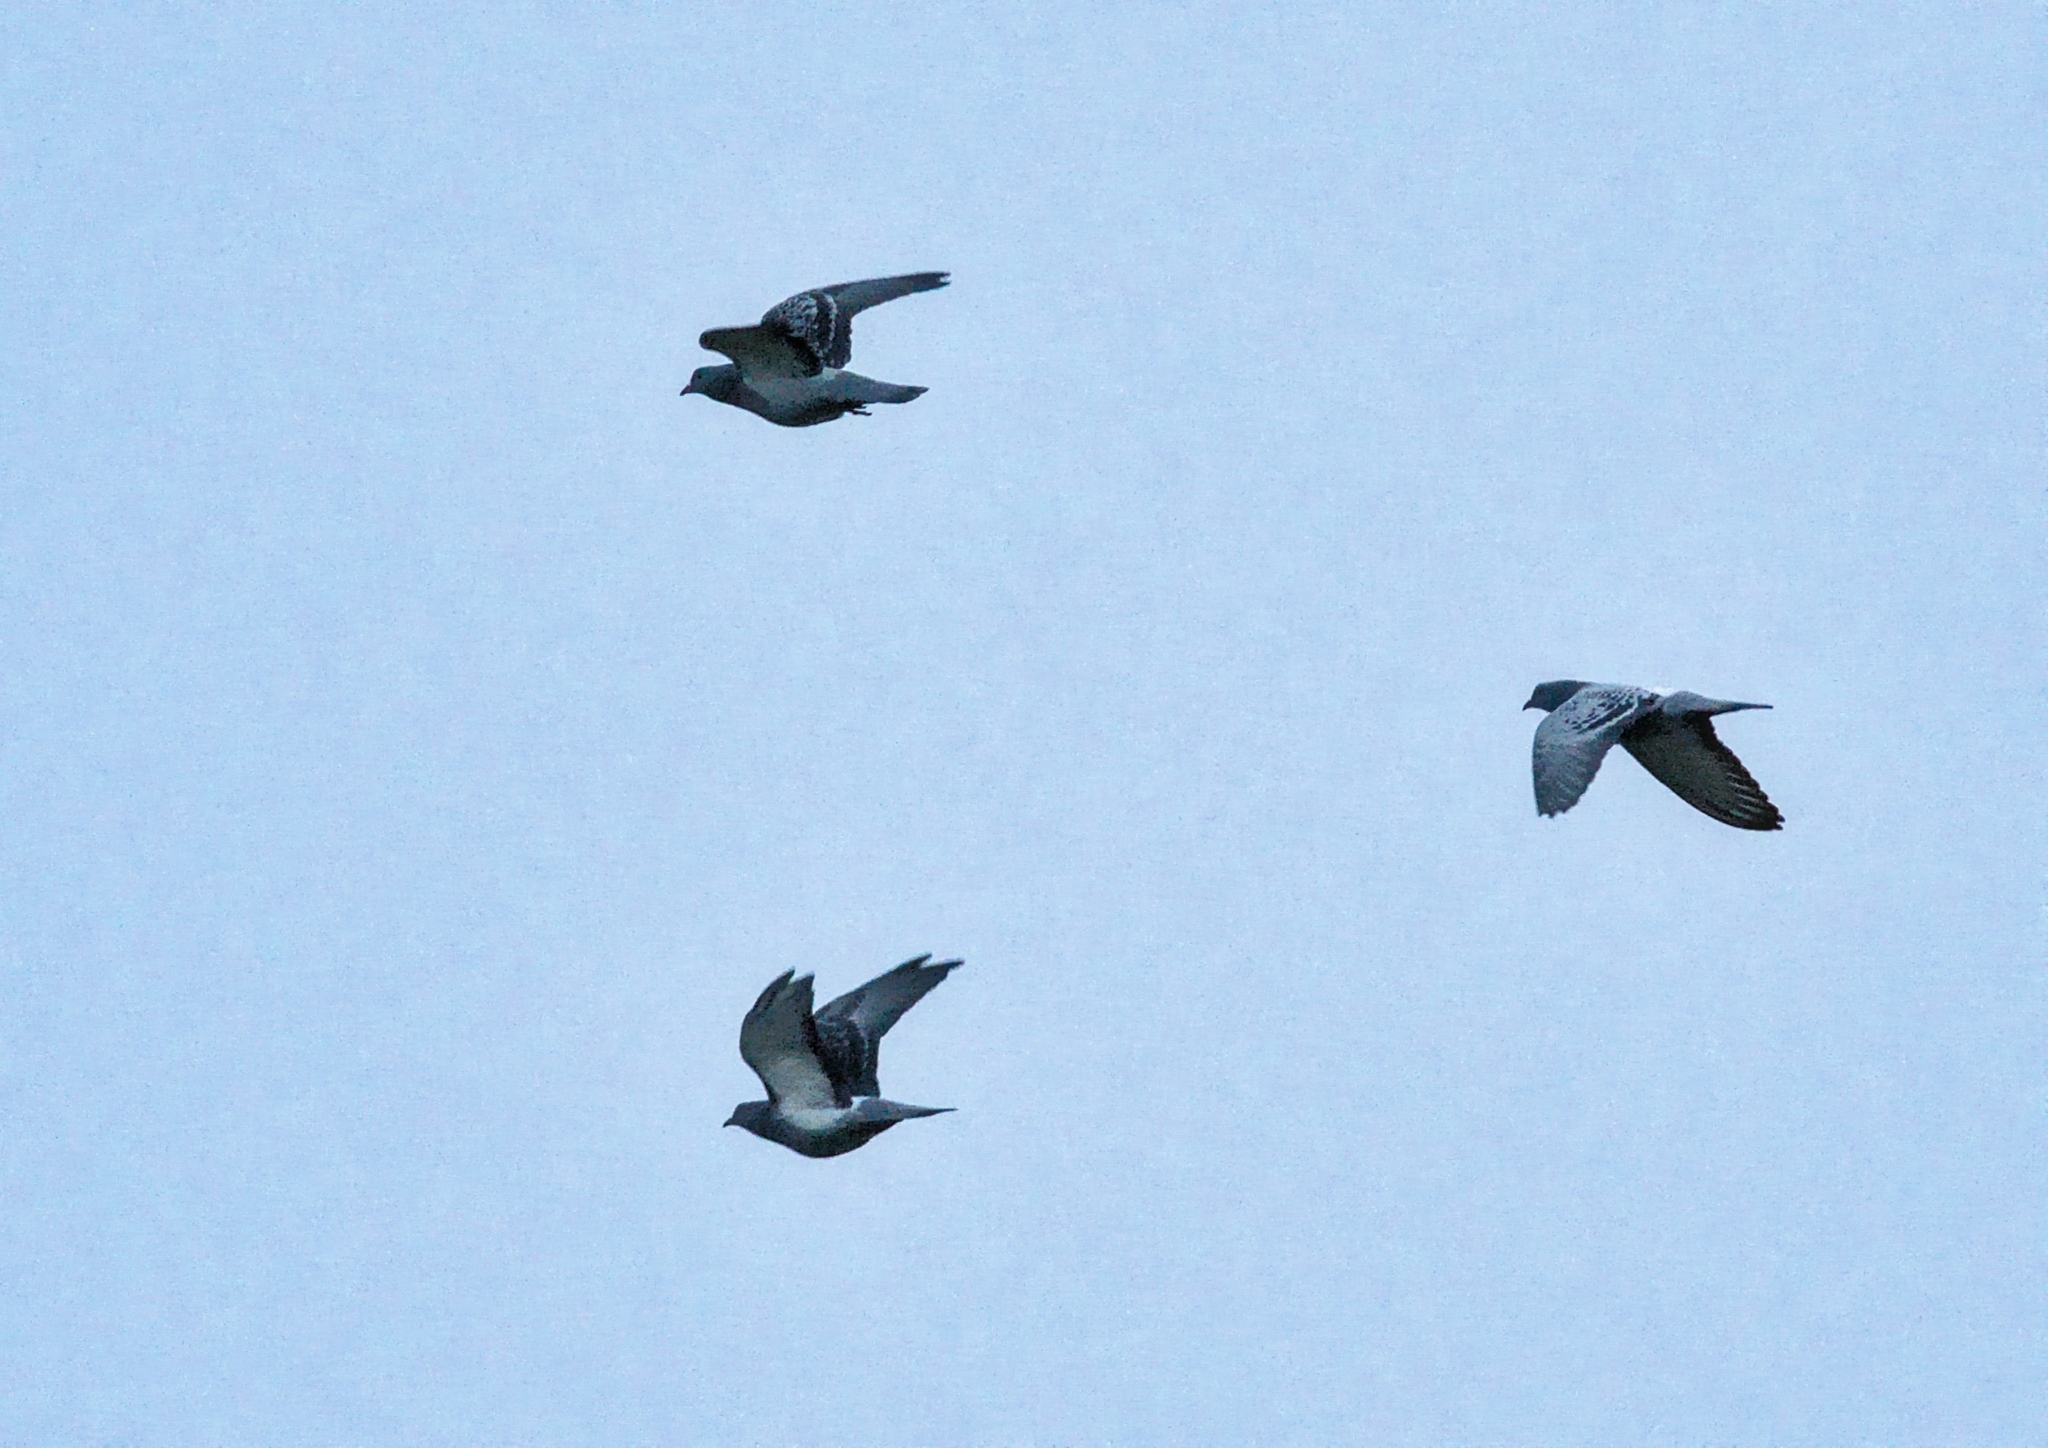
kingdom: Animalia
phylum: Chordata
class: Aves
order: Columbiformes
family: Columbidae
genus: Columba
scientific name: Columba livia
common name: Rock pigeon
